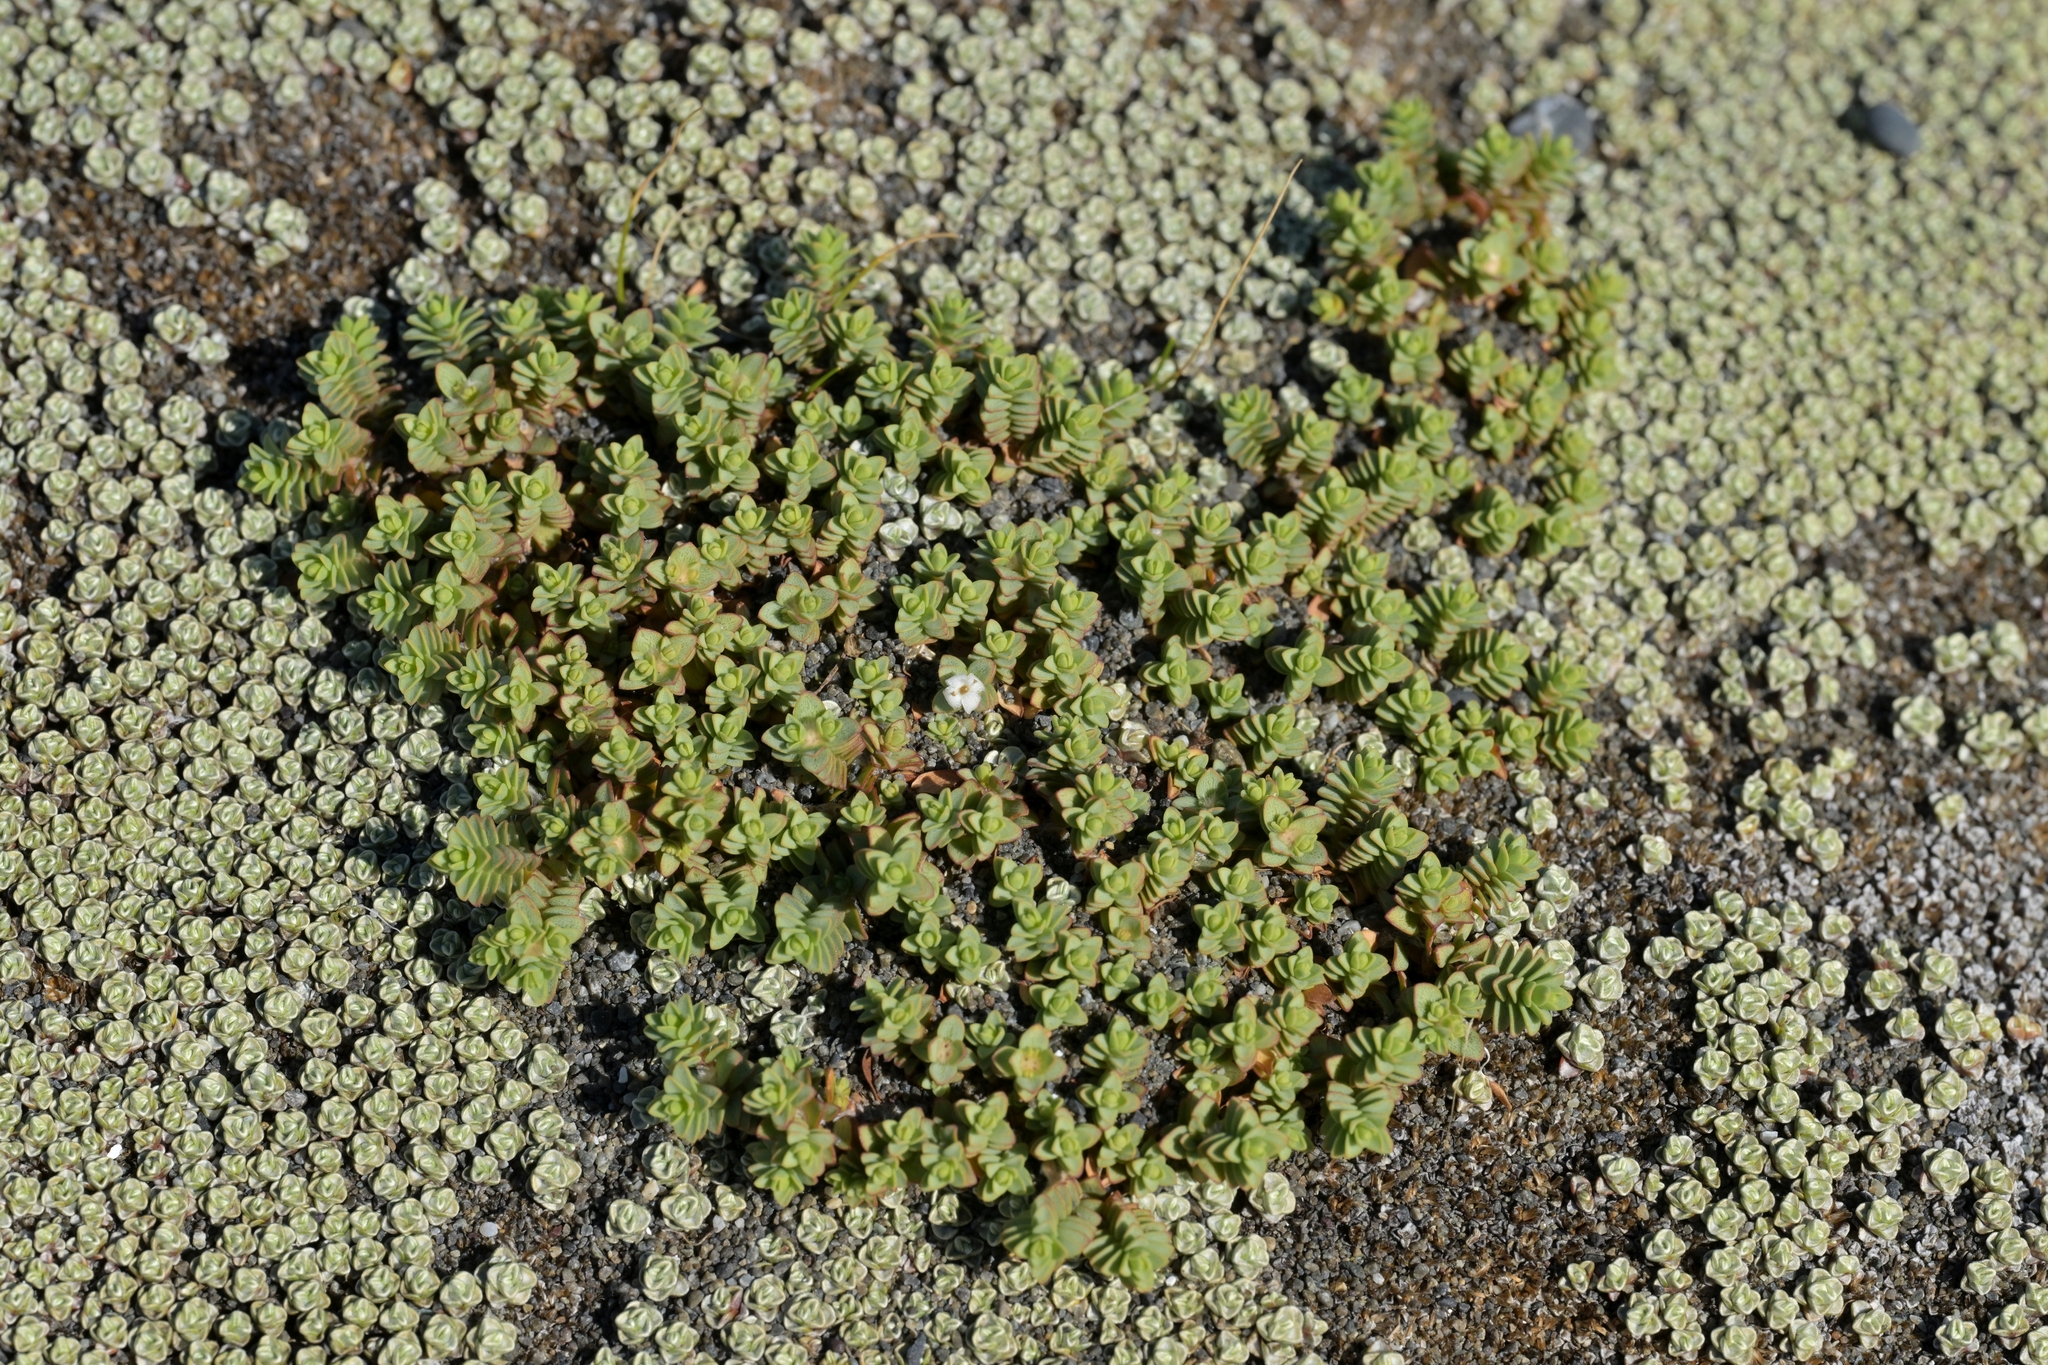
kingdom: Plantae
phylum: Tracheophyta
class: Magnoliopsida
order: Malvales
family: Thymelaeaceae
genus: Pimelea
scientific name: Pimelea carnosa
